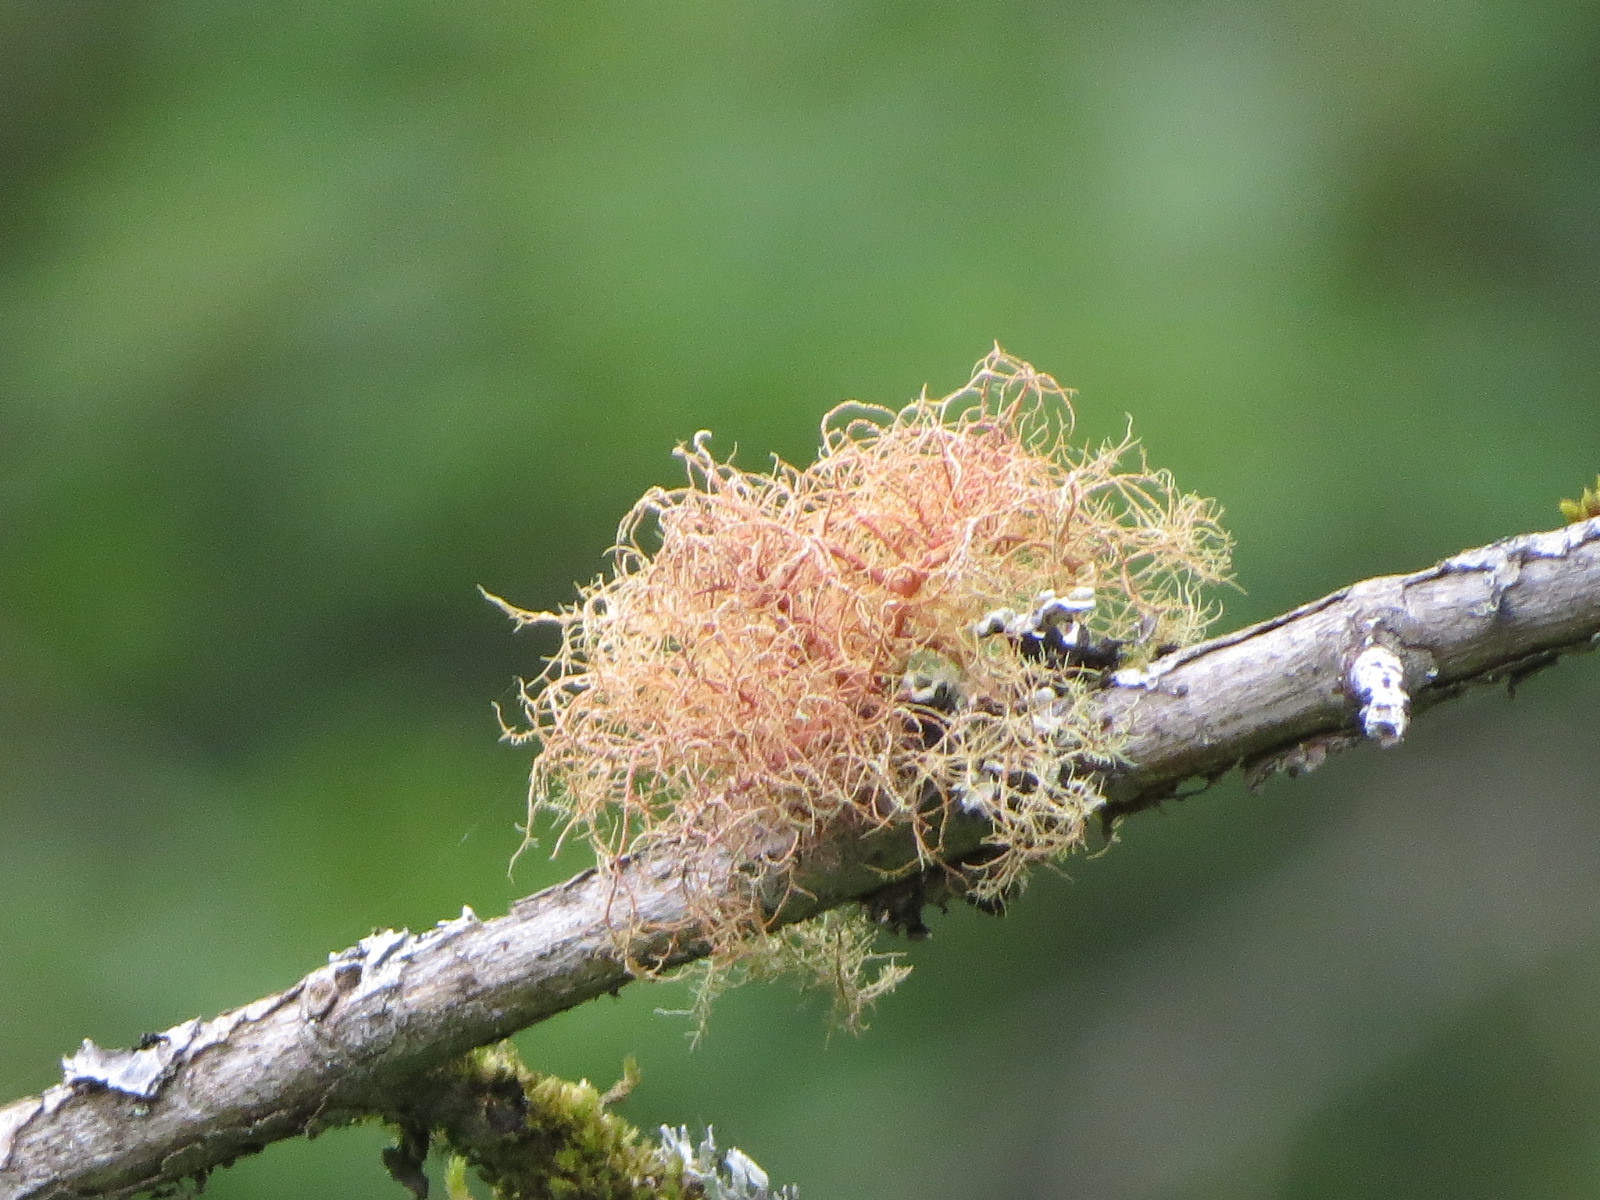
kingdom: Fungi
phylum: Ascomycota
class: Lecanoromycetes
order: Lecanorales
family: Parmeliaceae
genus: Usnea
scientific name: Usnea rubicunda
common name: Red beard lichen
